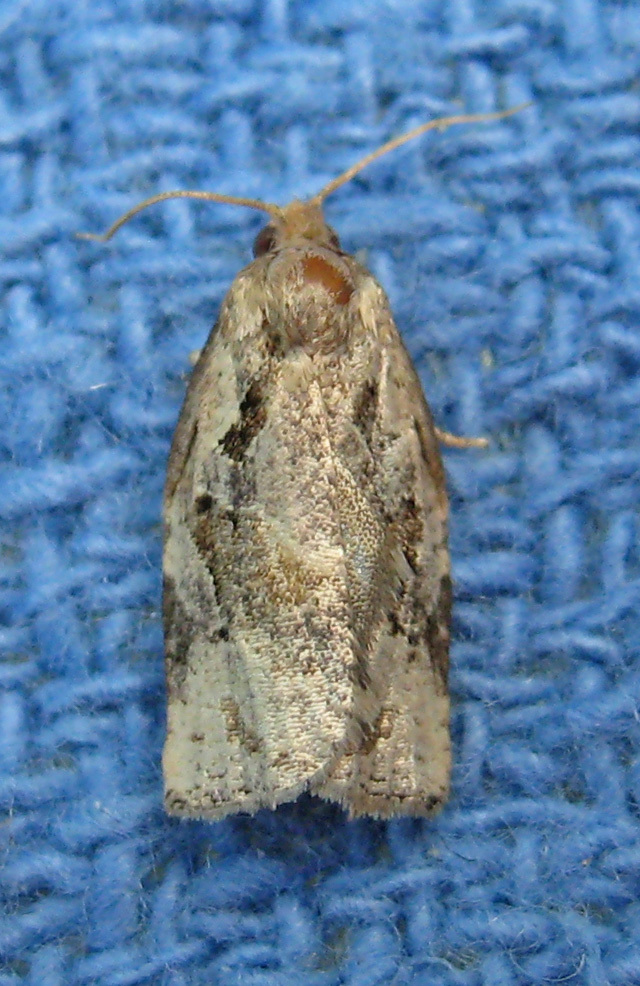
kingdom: Animalia
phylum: Arthropoda
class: Insecta
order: Lepidoptera
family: Tortricidae
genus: Archips
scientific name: Archips grisea
